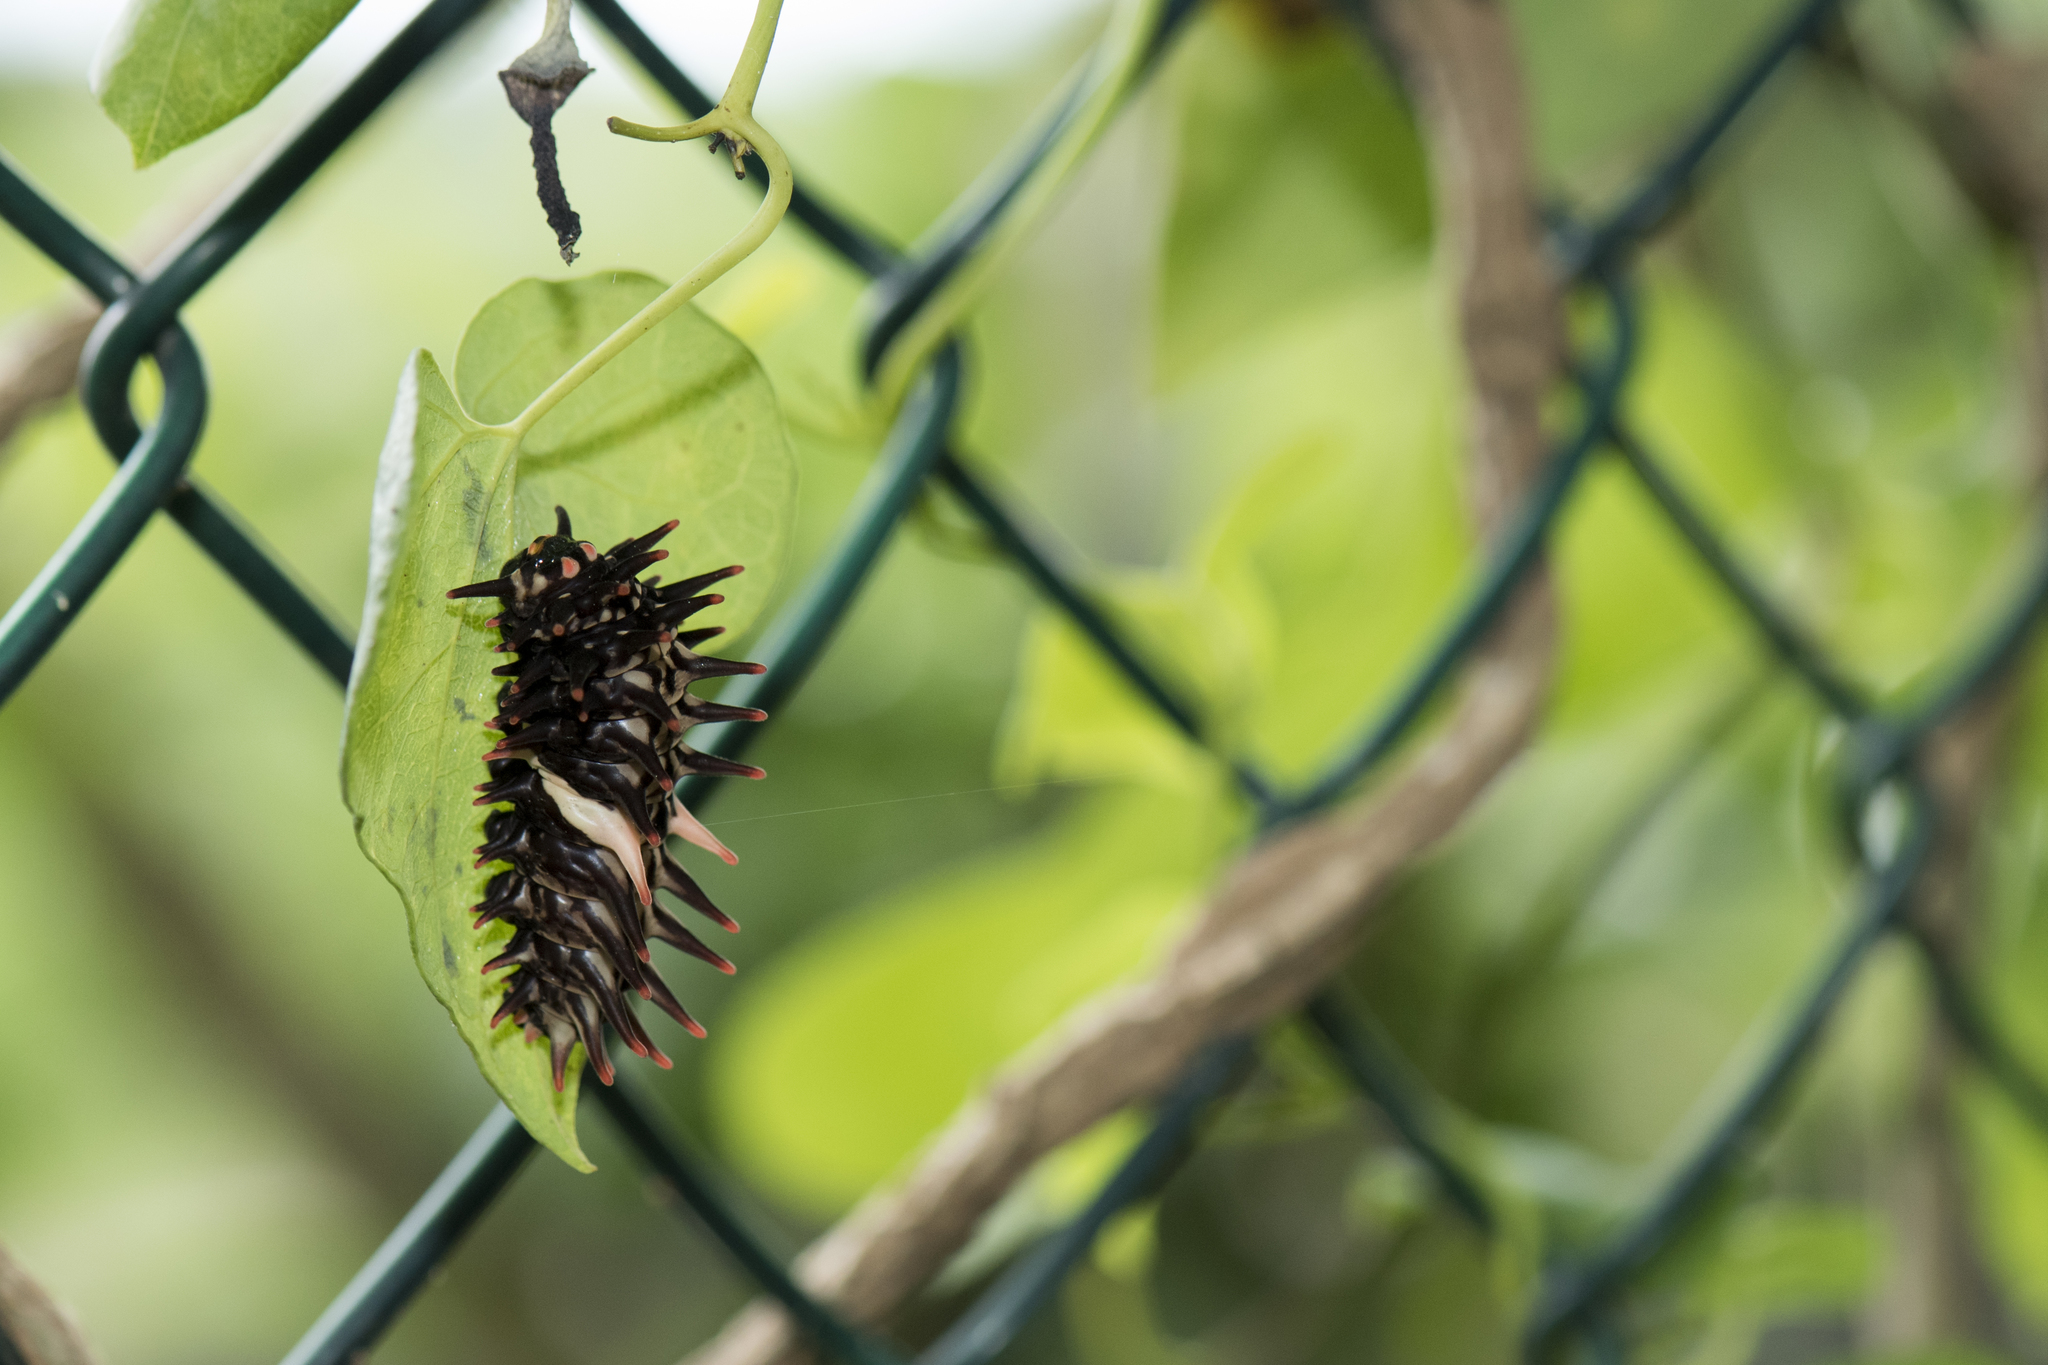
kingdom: Animalia
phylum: Arthropoda
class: Insecta
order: Lepidoptera
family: Papilionidae
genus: Troides
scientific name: Troides aeacus
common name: Golden birdwing
